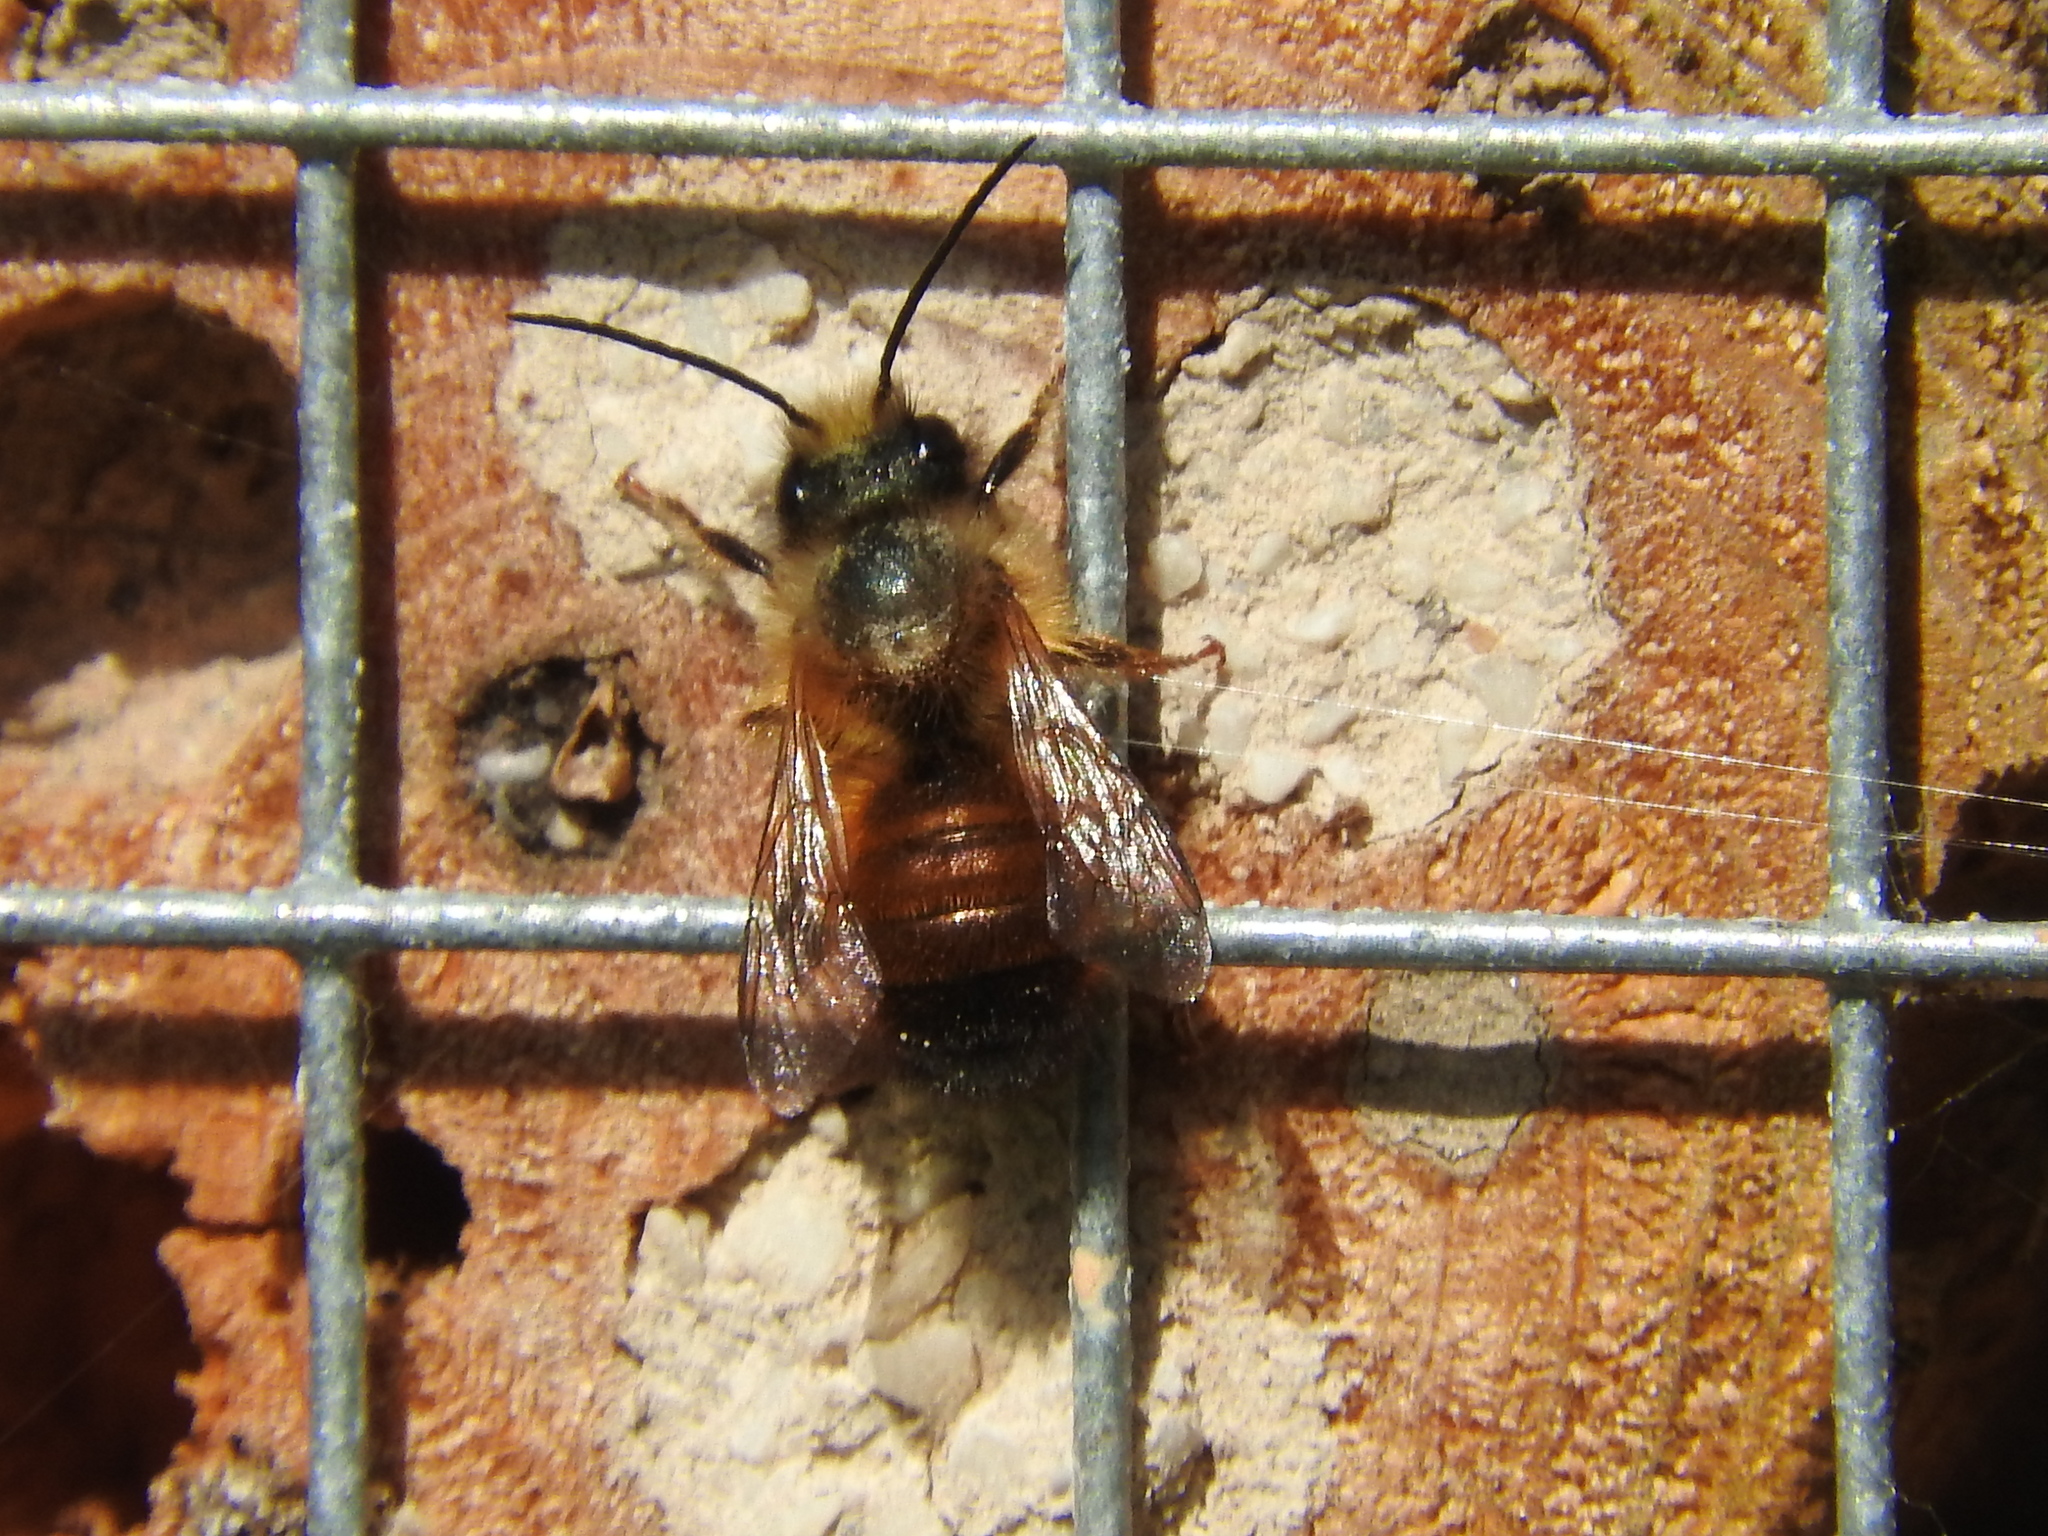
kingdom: Animalia
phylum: Arthropoda
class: Insecta
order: Hymenoptera
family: Megachilidae
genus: Osmia
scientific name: Osmia bicornis
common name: Red mason bee
